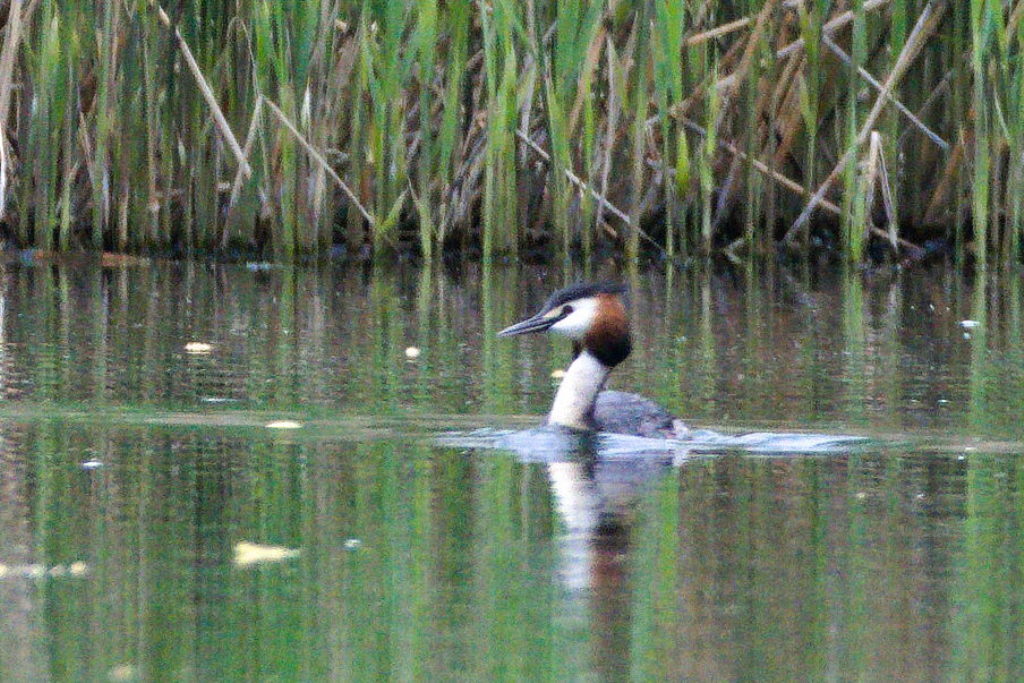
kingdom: Animalia
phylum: Chordata
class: Aves
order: Podicipediformes
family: Podicipedidae
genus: Podiceps
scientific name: Podiceps cristatus
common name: Great crested grebe
